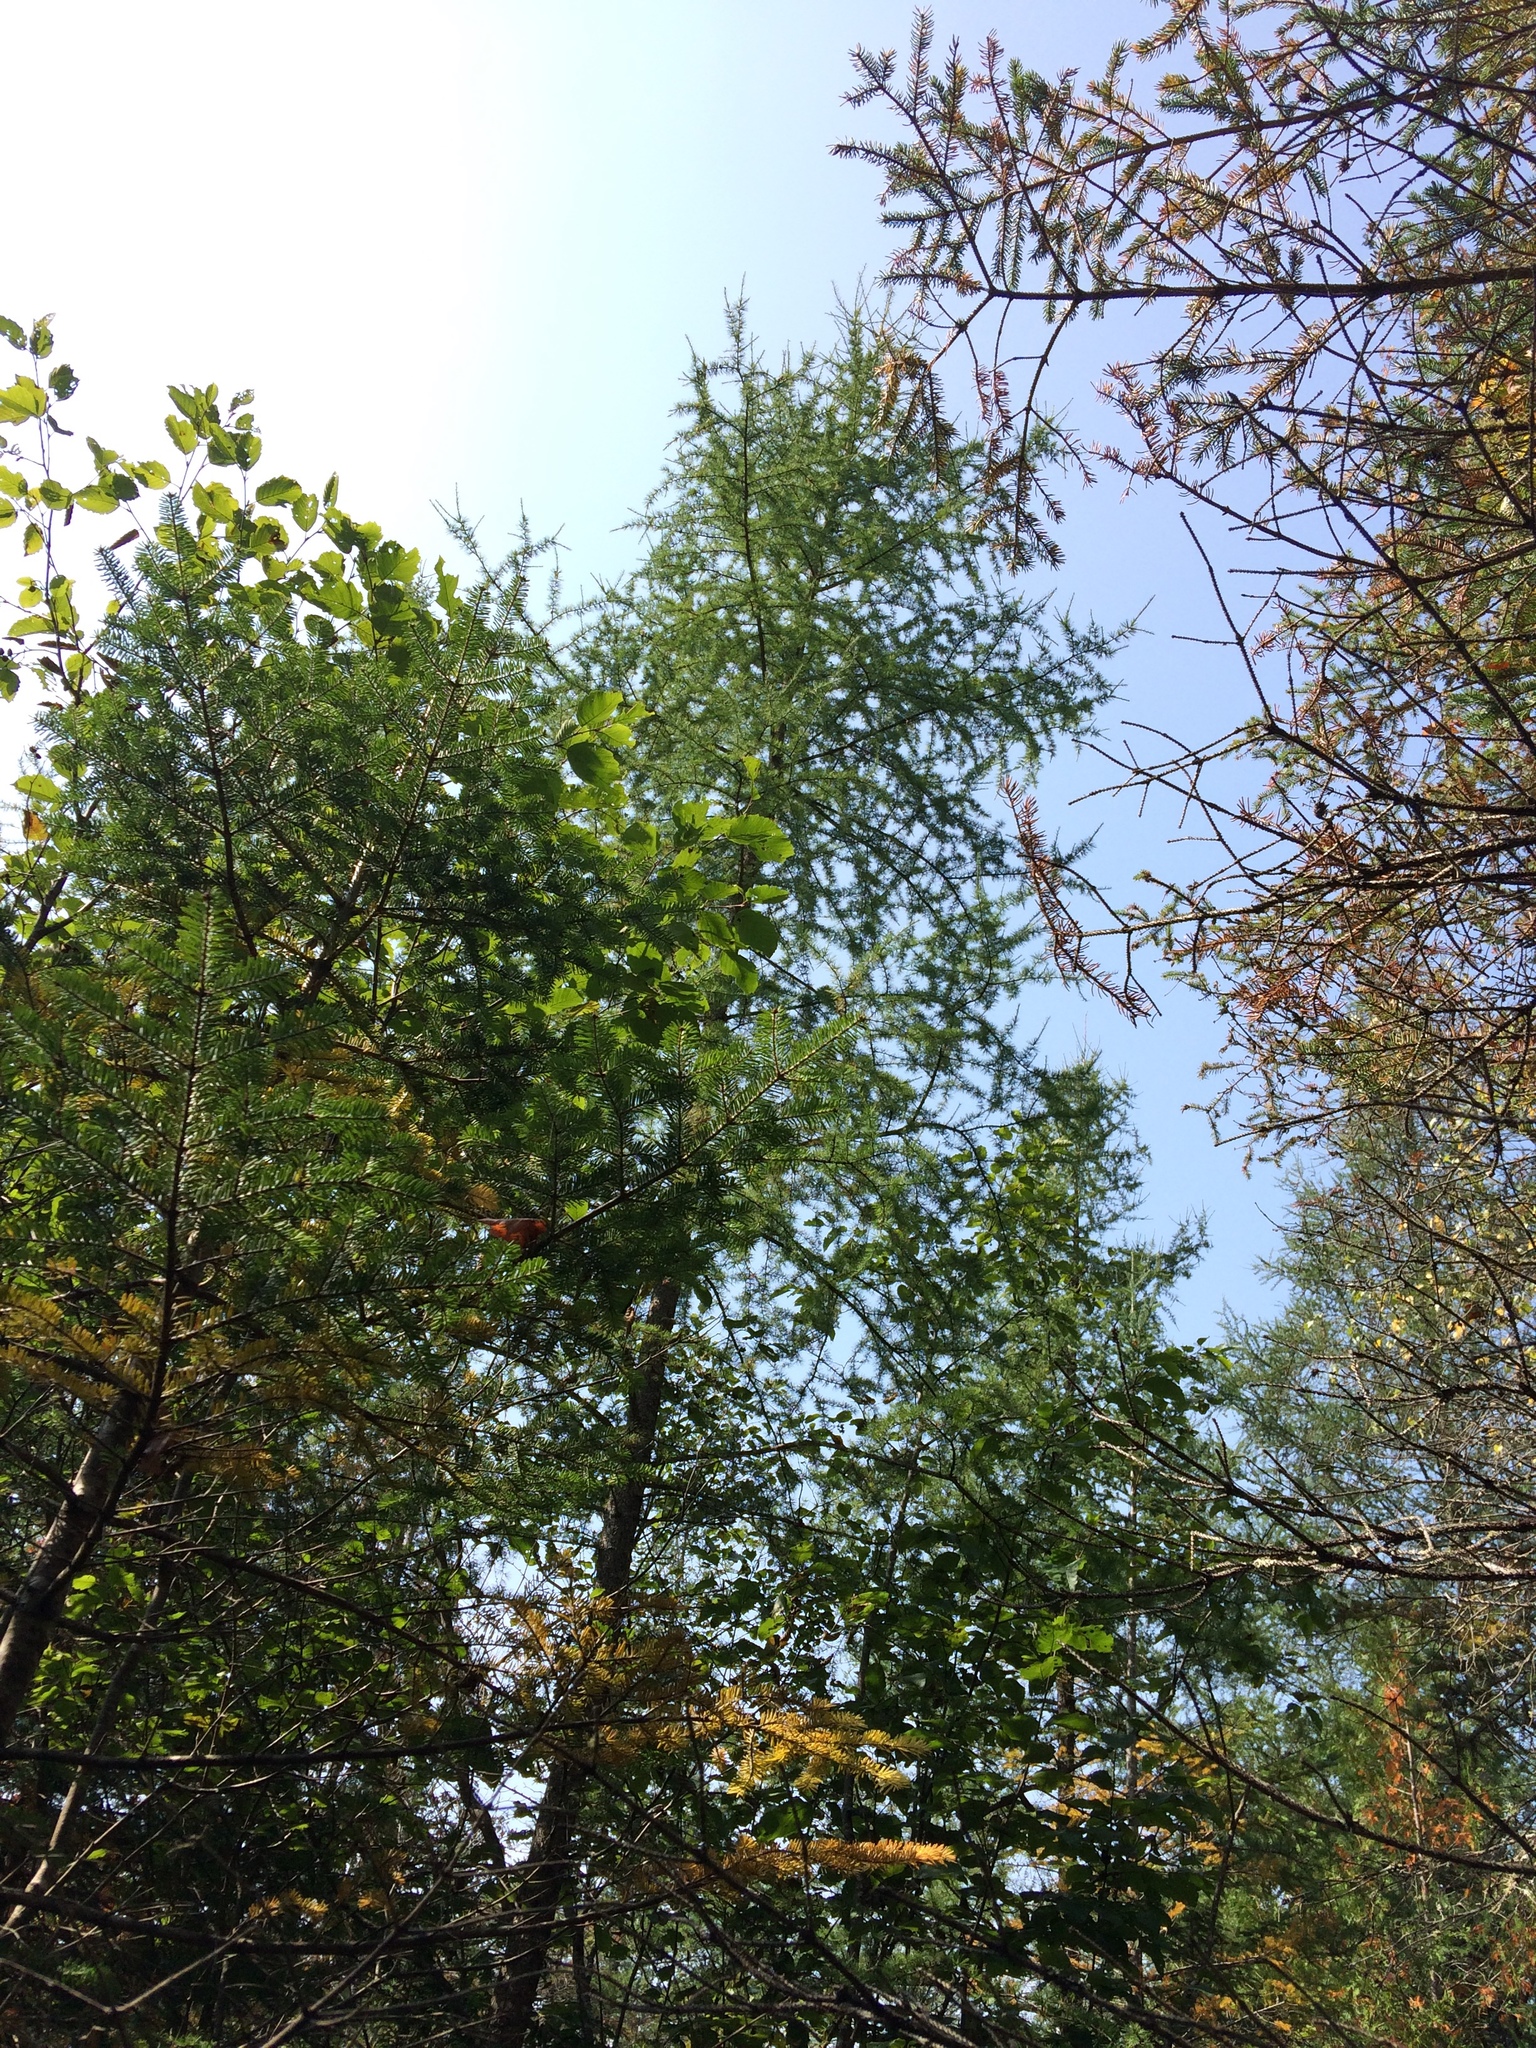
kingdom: Plantae
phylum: Tracheophyta
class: Pinopsida
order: Pinales
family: Pinaceae
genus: Larix
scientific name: Larix laricina
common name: American larch
